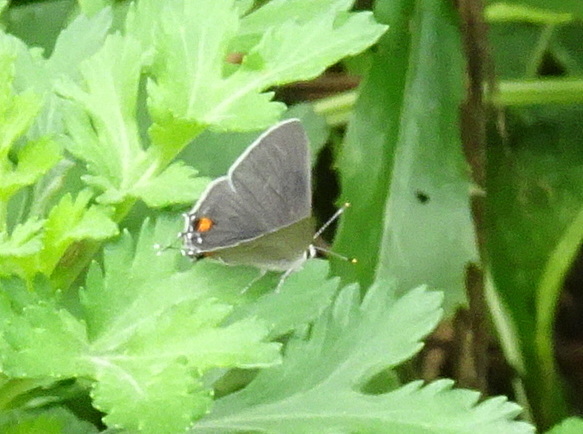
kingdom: Animalia
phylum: Arthropoda
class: Insecta
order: Lepidoptera
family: Lycaenidae
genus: Strymon
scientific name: Strymon melinus
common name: Gray hairstreak
